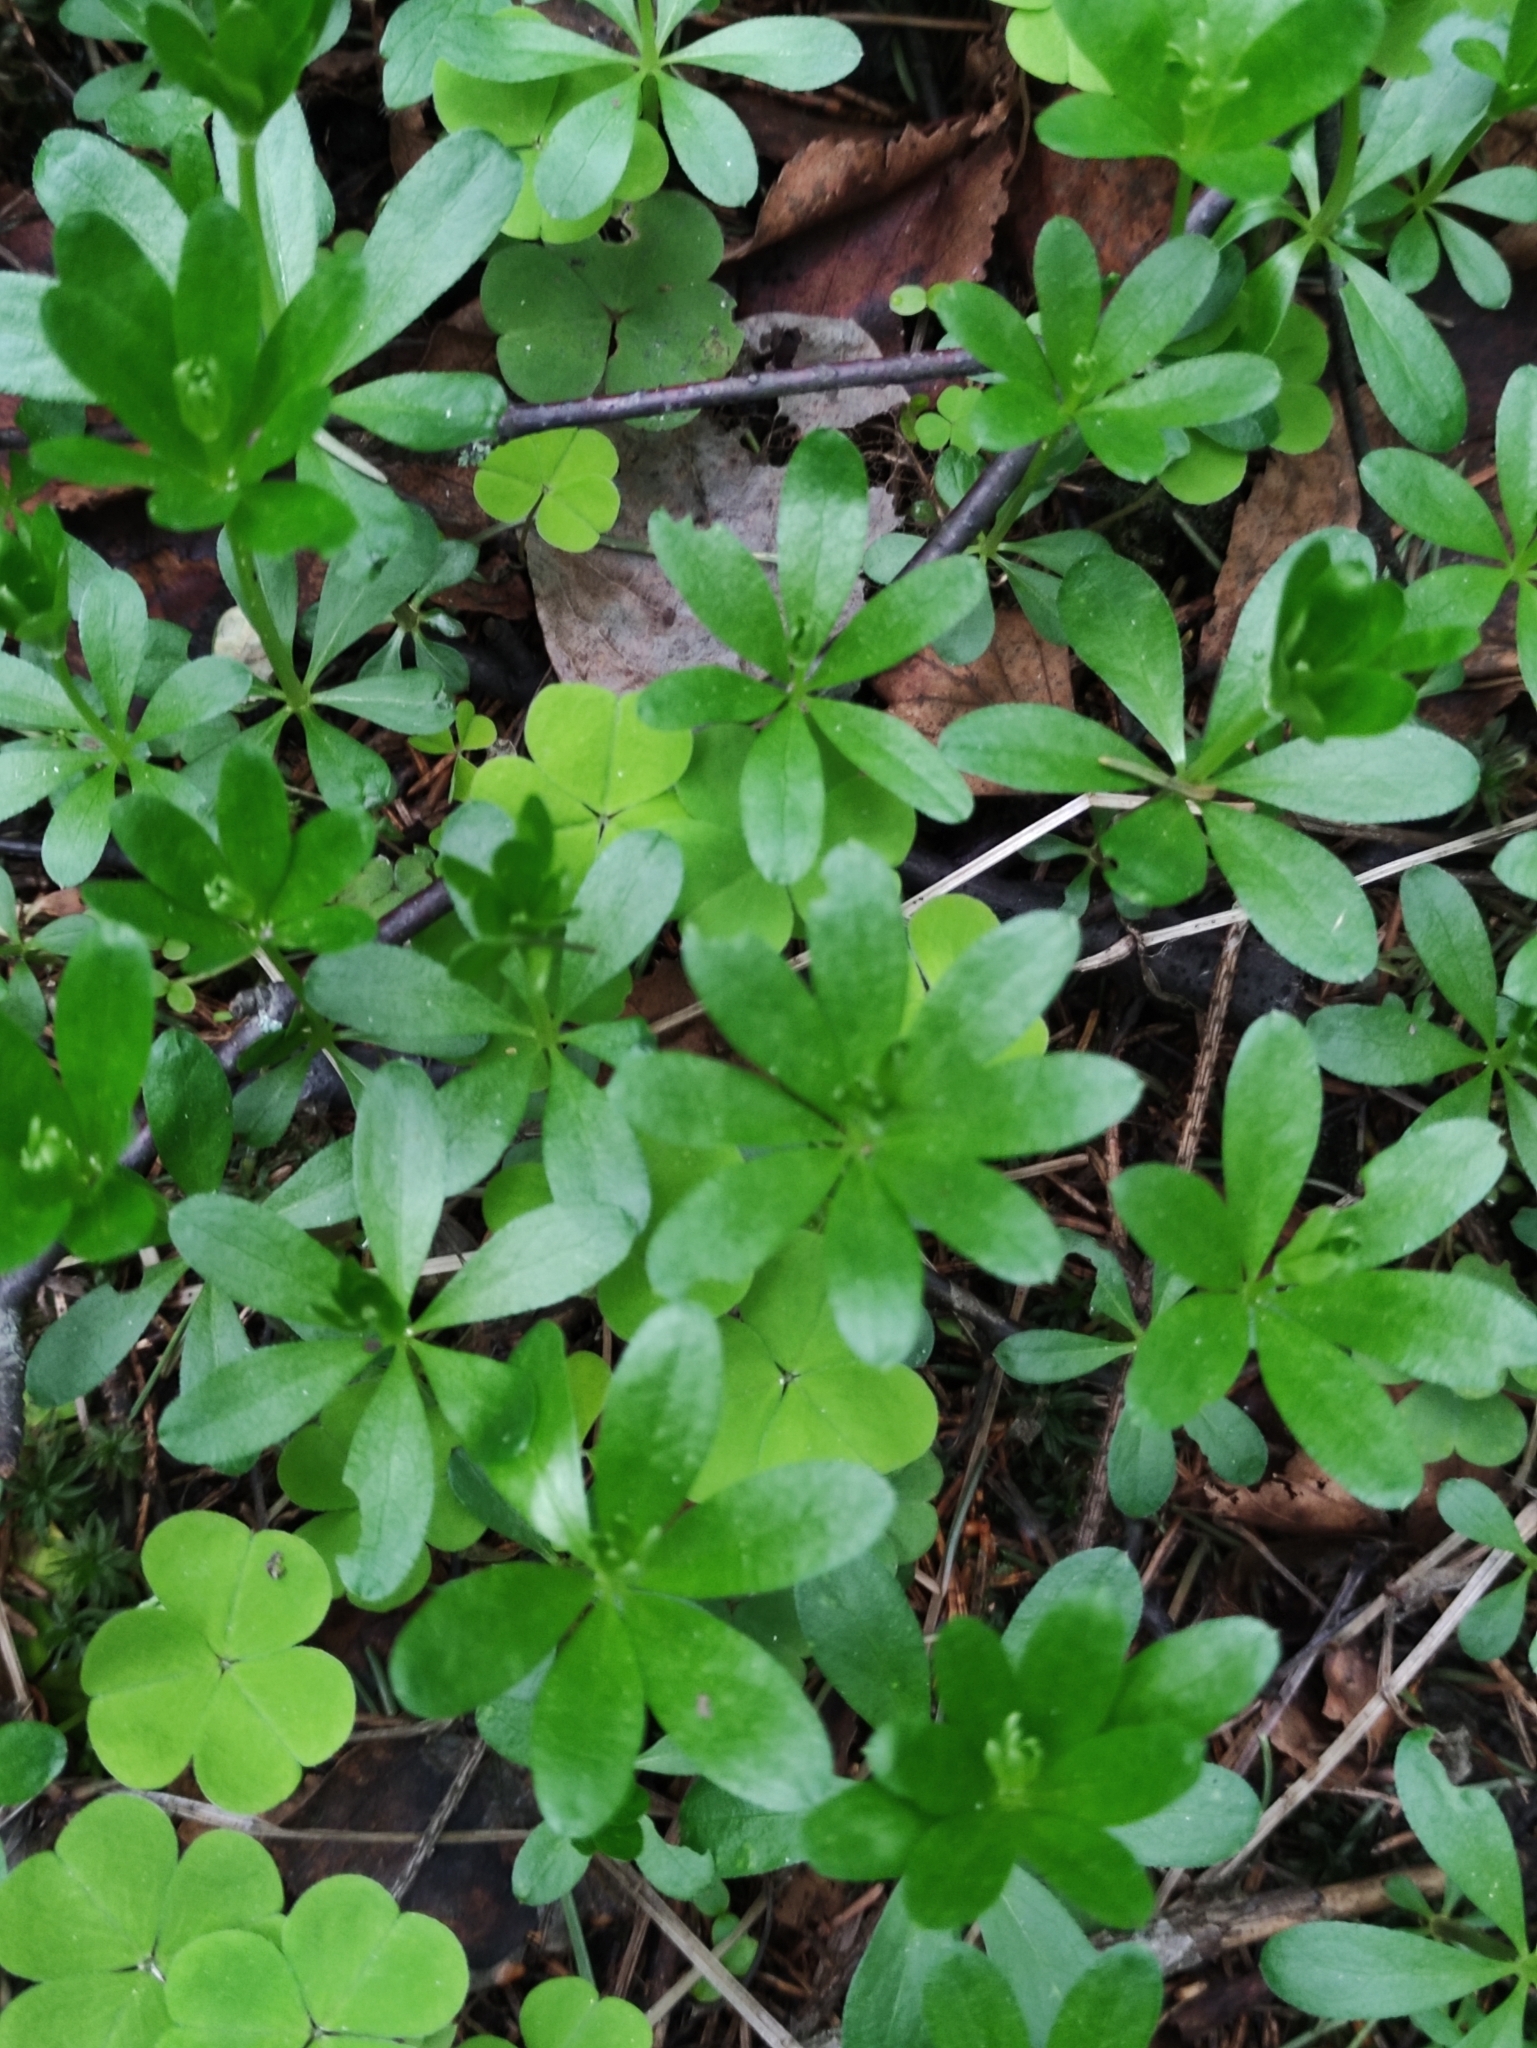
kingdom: Plantae
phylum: Tracheophyta
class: Magnoliopsida
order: Gentianales
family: Rubiaceae
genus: Galium
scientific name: Galium odoratum
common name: Sweet woodruff
